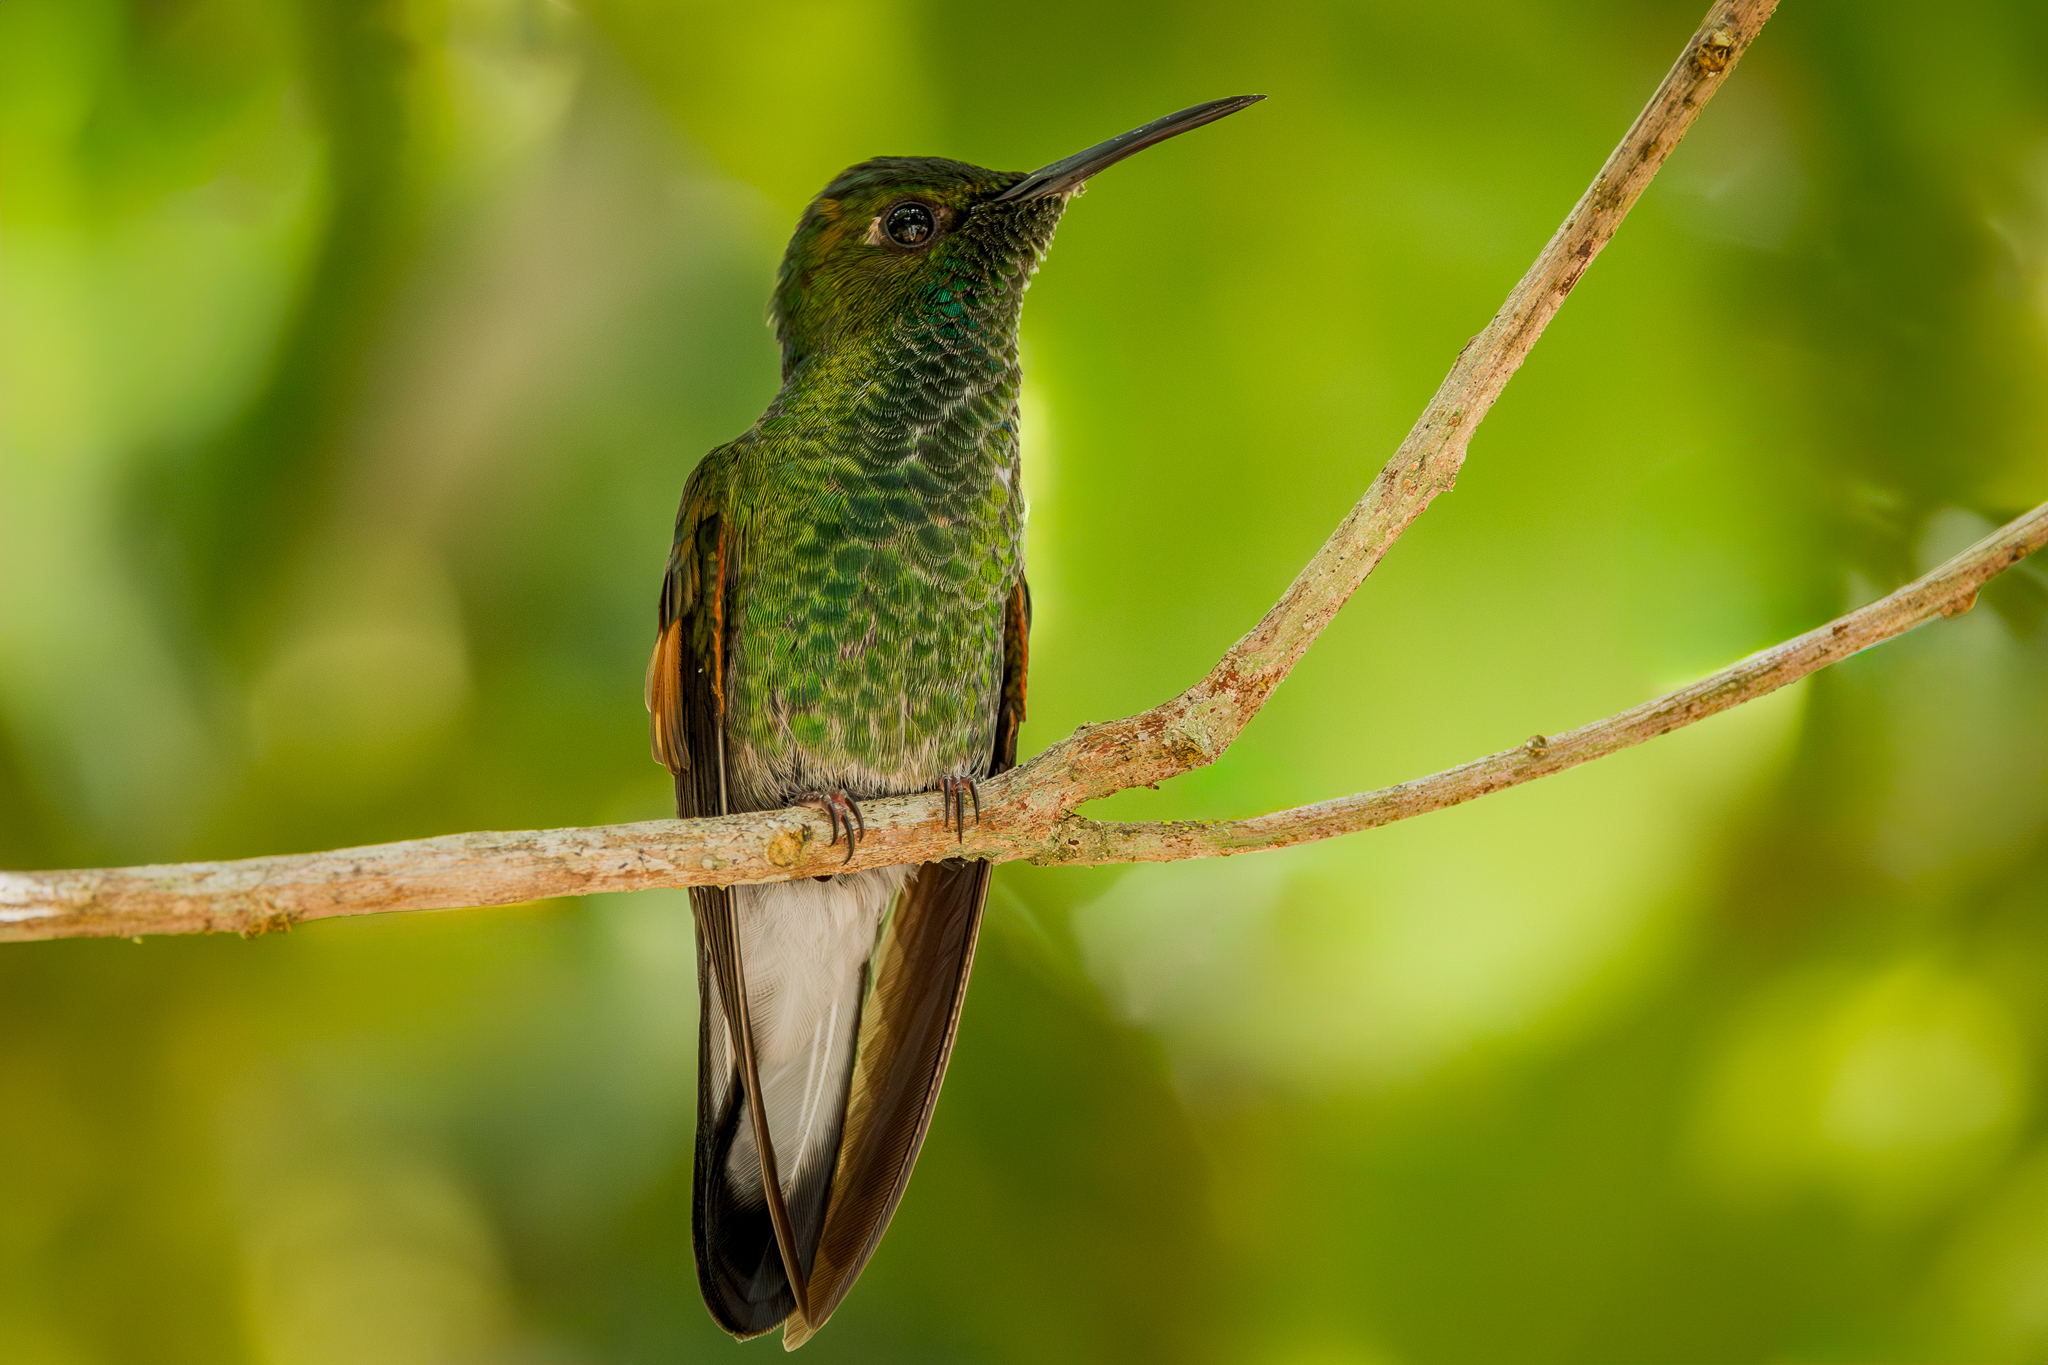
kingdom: Animalia
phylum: Chordata
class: Aves
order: Apodiformes
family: Trochilidae
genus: Eupherusa
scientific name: Eupherusa eximia
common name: Stripe-tailed hummingbird
